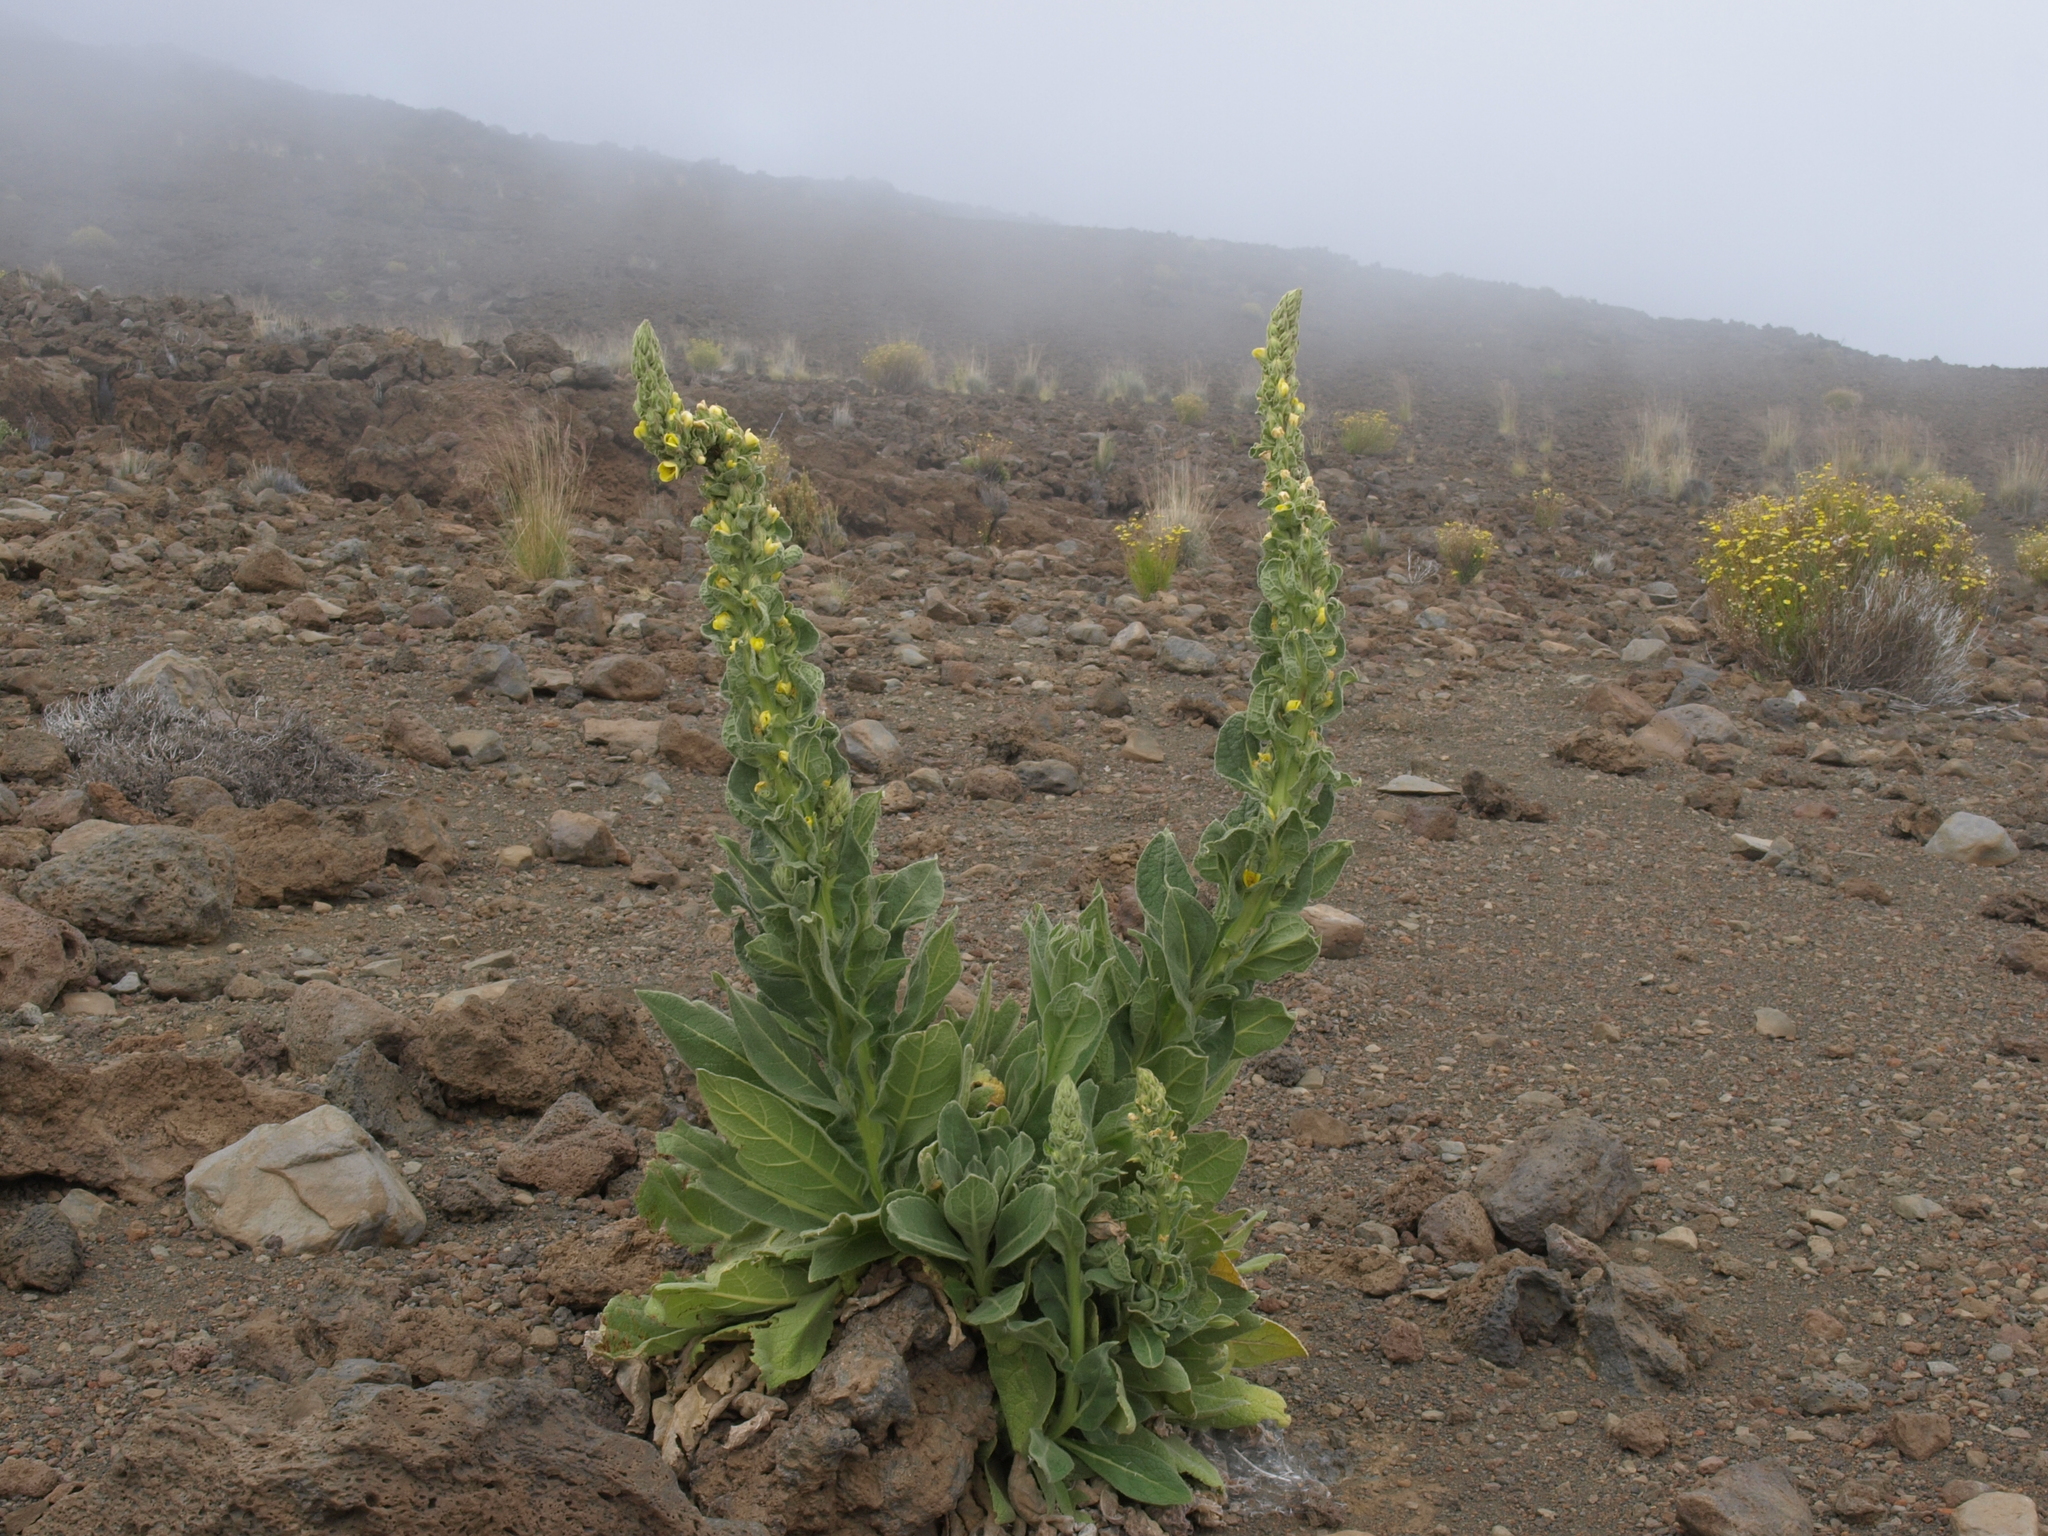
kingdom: Plantae
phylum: Tracheophyta
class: Magnoliopsida
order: Lamiales
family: Scrophulariaceae
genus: Verbascum
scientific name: Verbascum thapsus
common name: Common mullein
